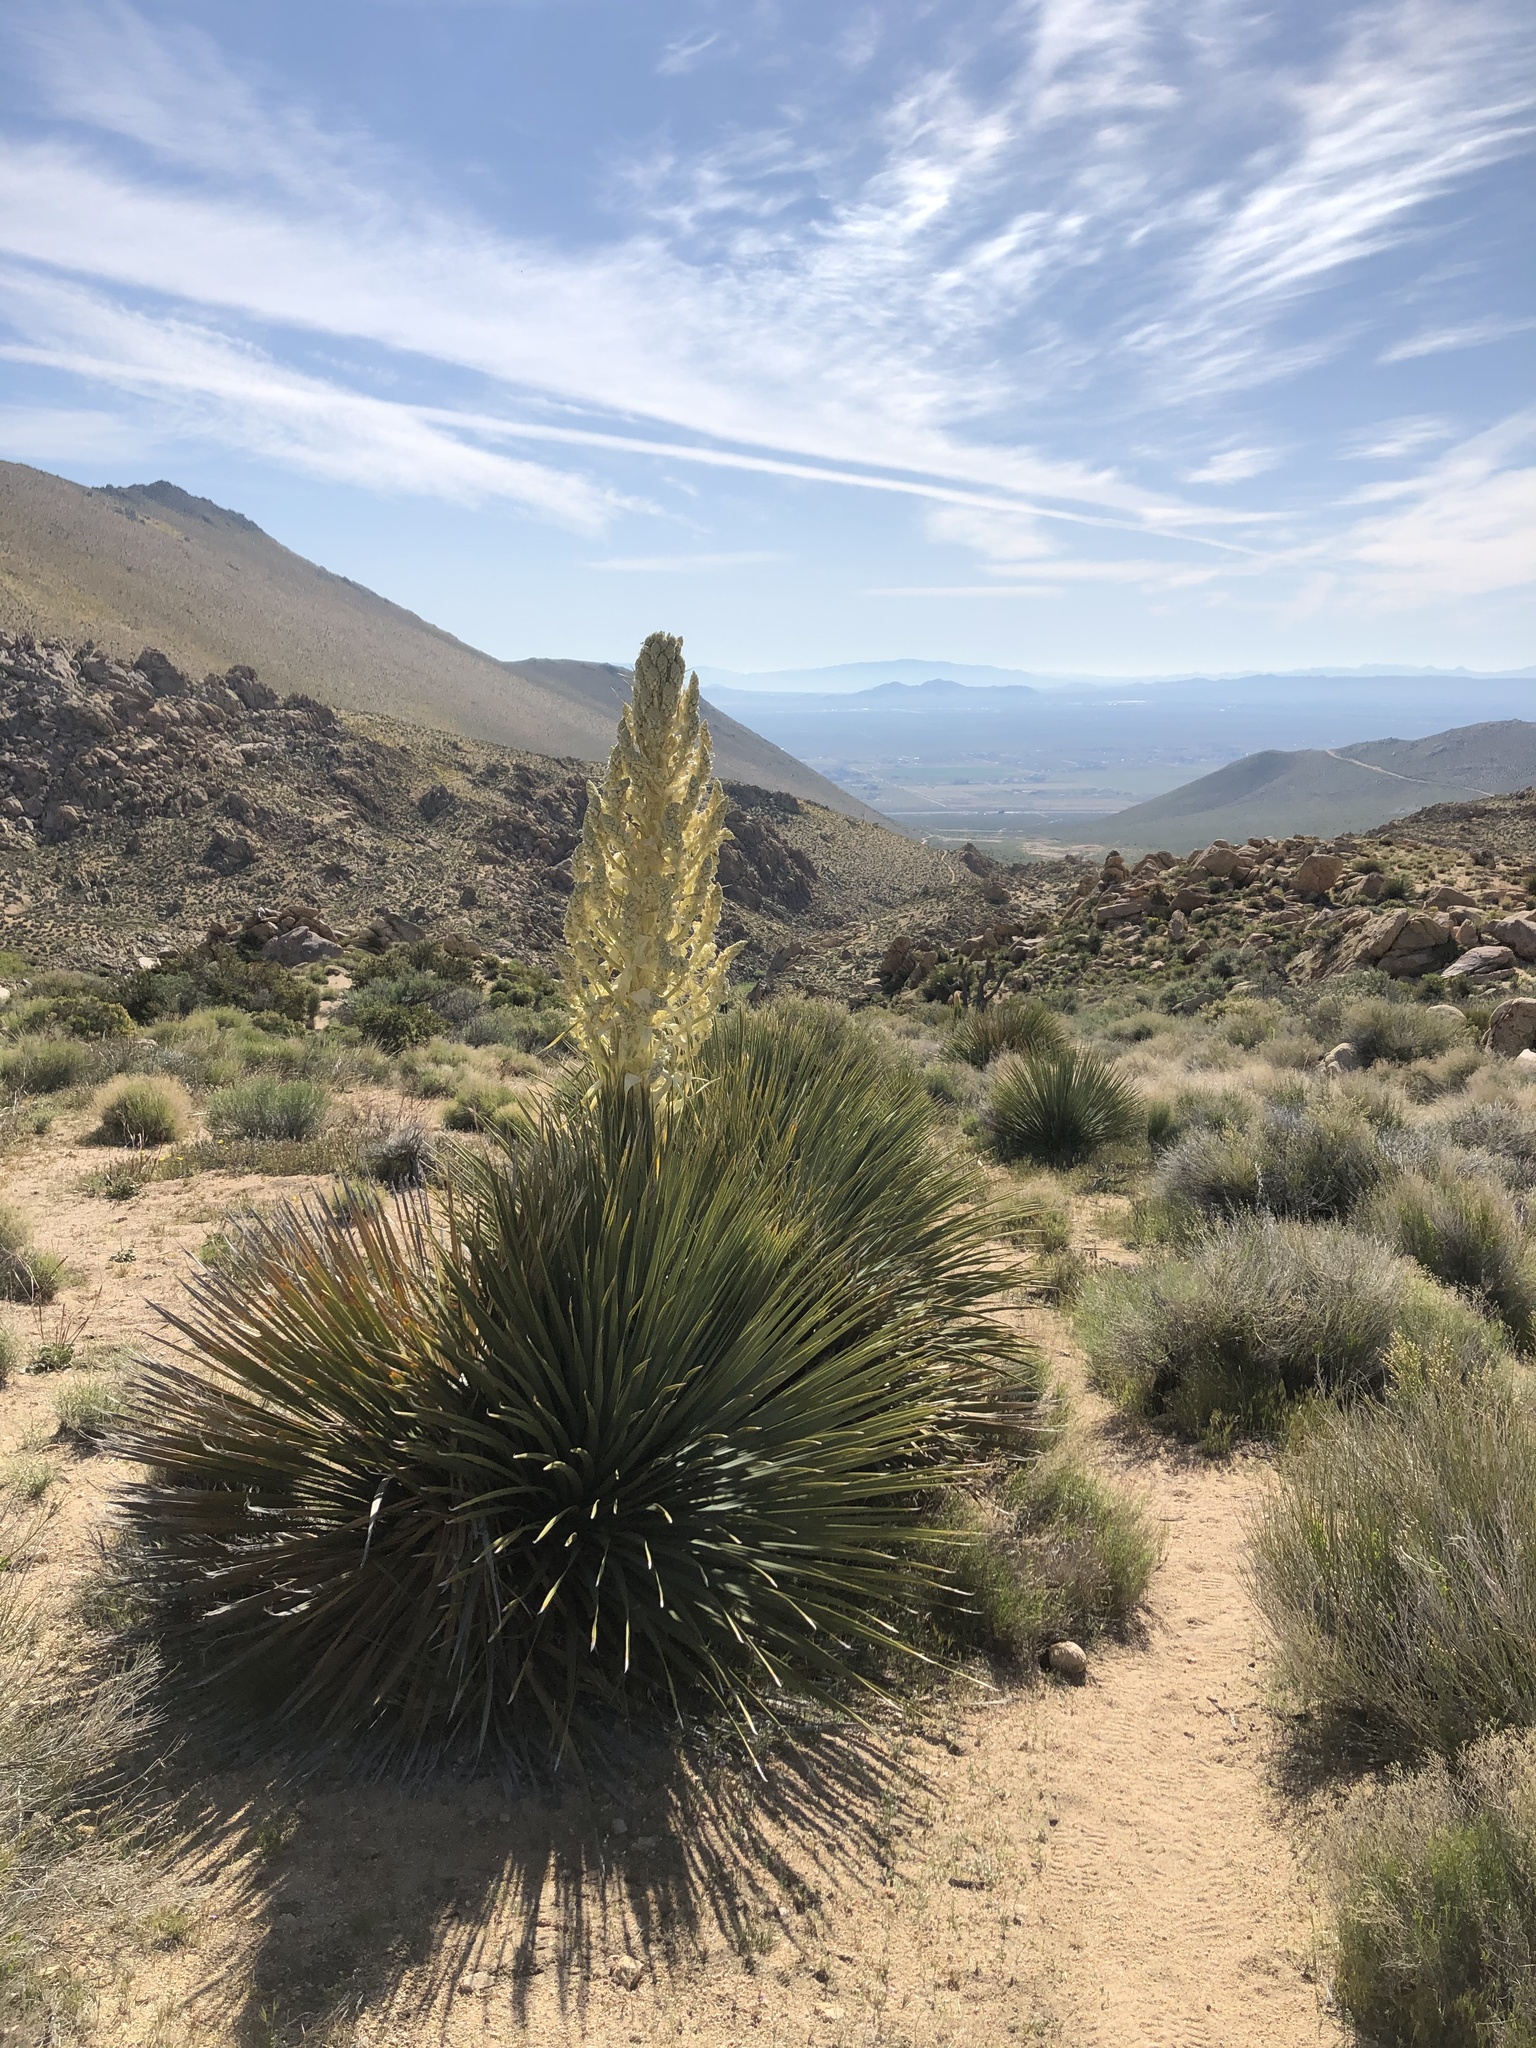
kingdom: Plantae
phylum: Tracheophyta
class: Liliopsida
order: Asparagales
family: Asparagaceae
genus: Nolina
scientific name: Nolina parryi
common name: Parry nolina
